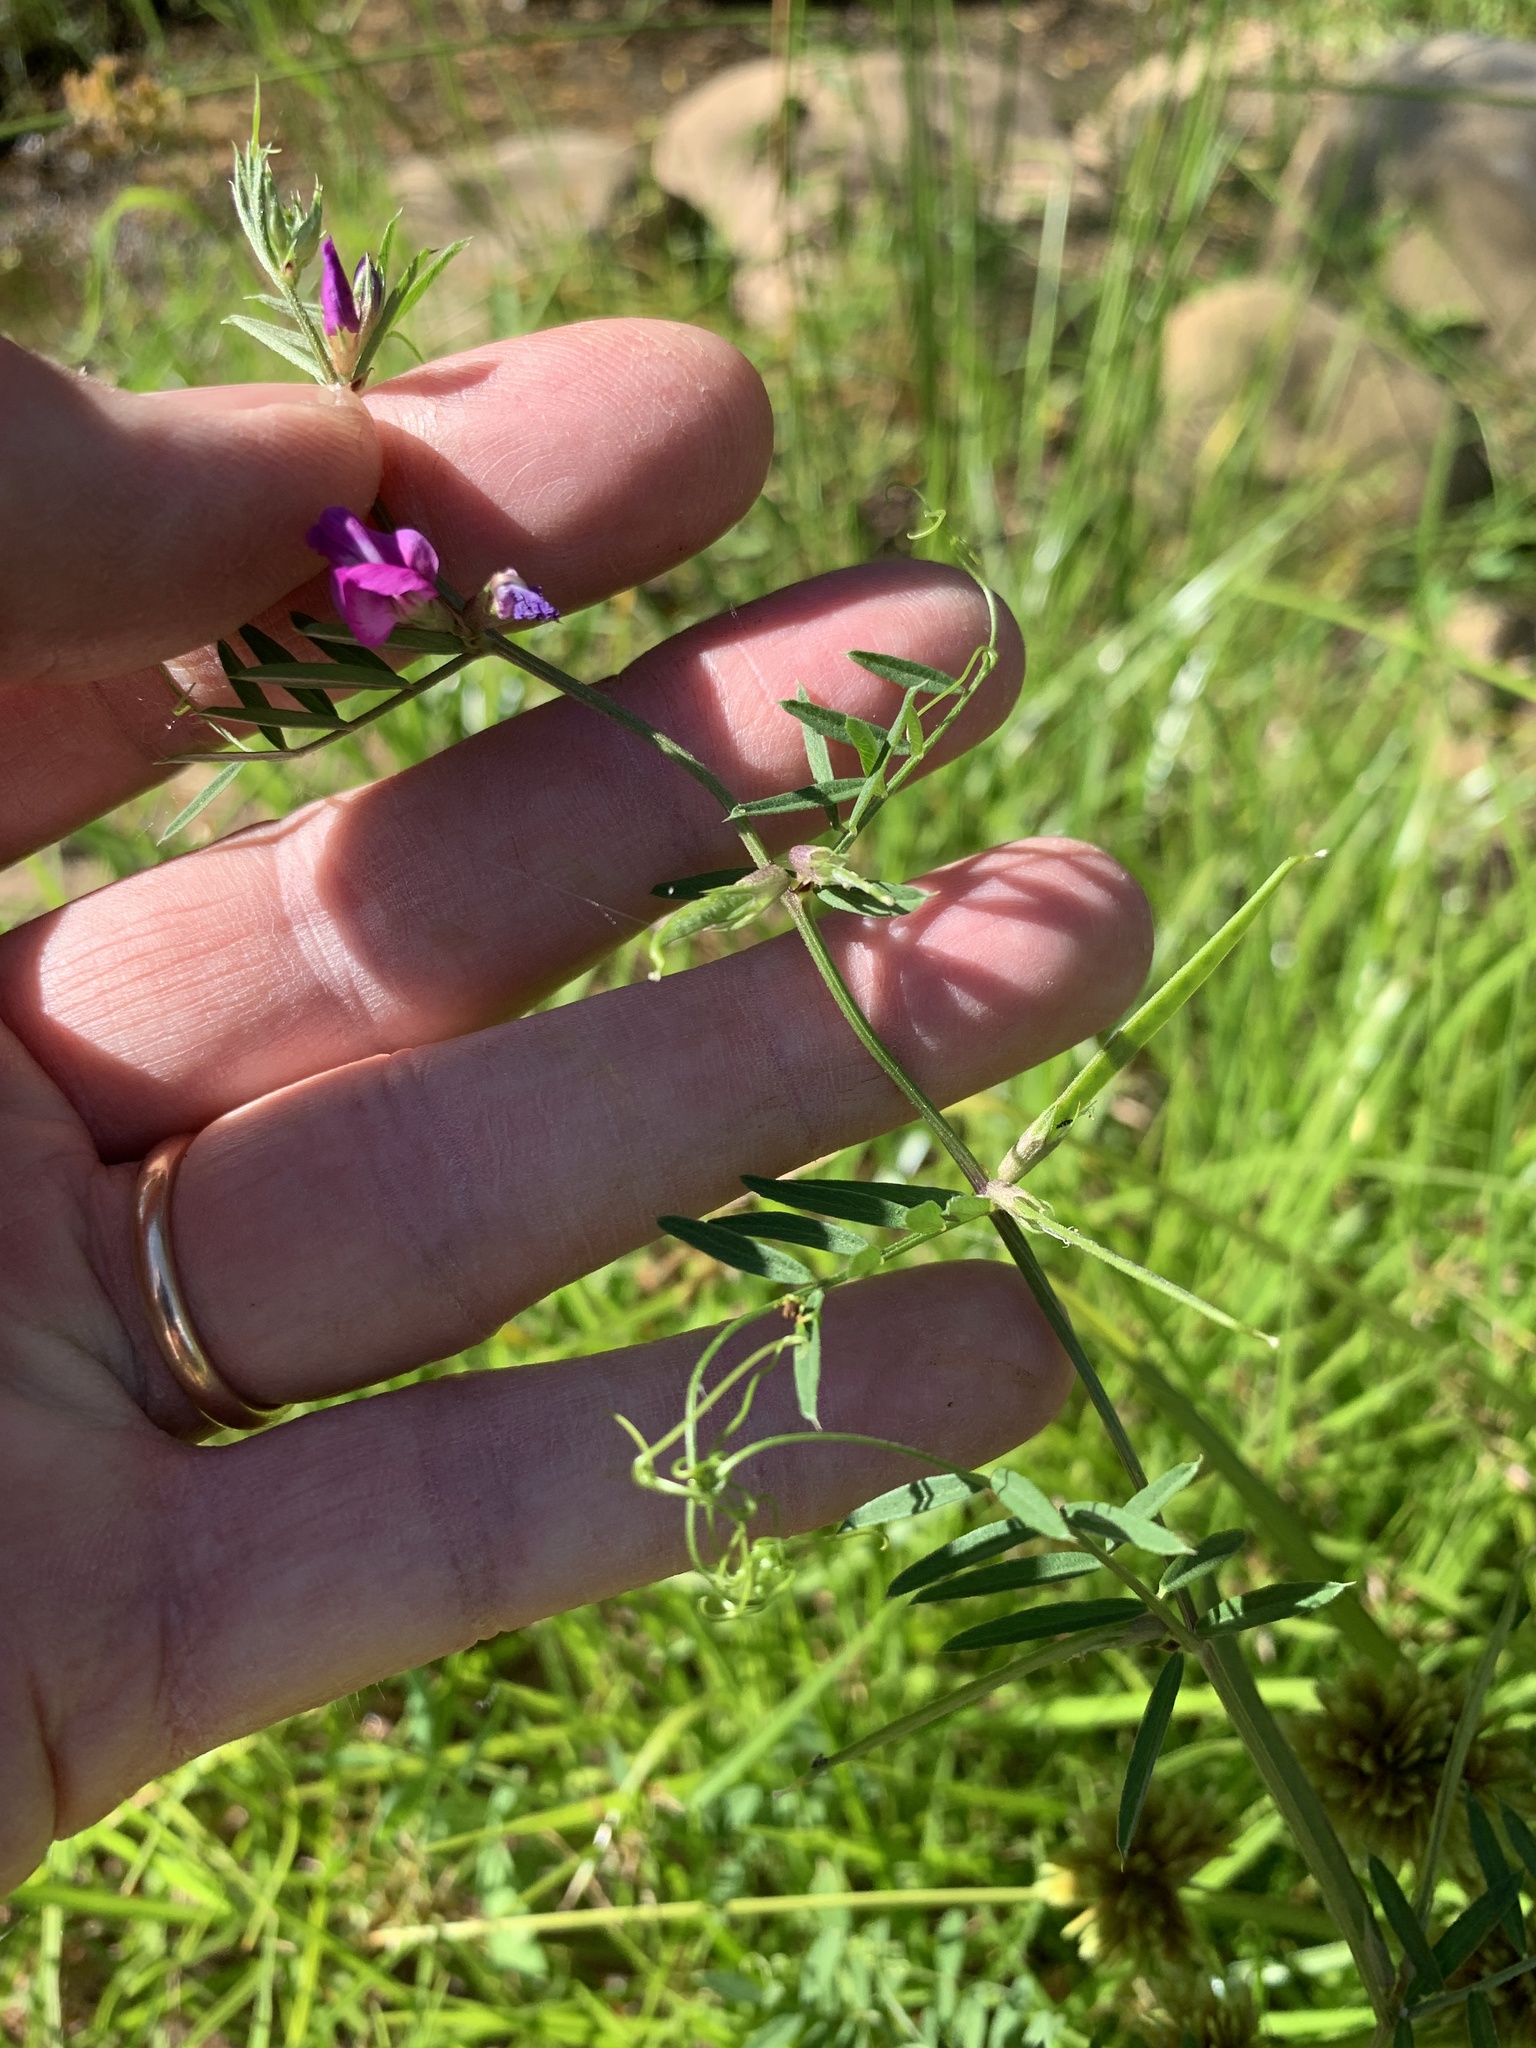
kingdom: Plantae
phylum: Tracheophyta
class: Magnoliopsida
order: Fabales
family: Fabaceae
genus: Vicia
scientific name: Vicia sativa
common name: Garden vetch
